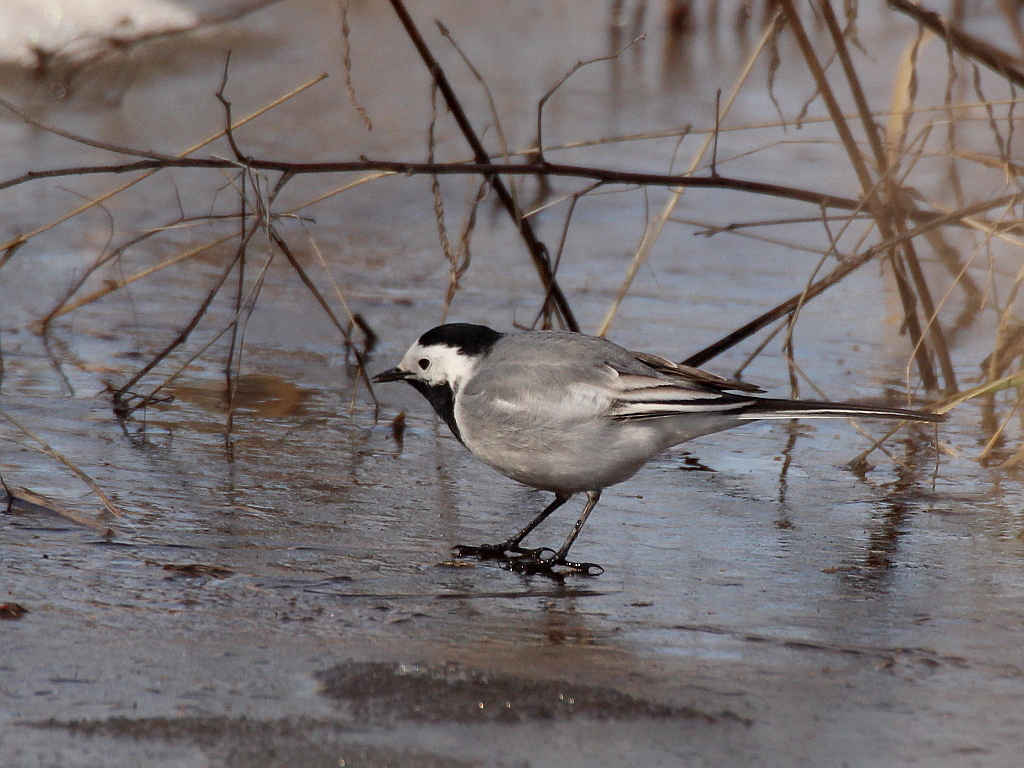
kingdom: Animalia
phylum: Chordata
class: Aves
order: Passeriformes
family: Motacillidae
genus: Motacilla
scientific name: Motacilla alba
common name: White wagtail
